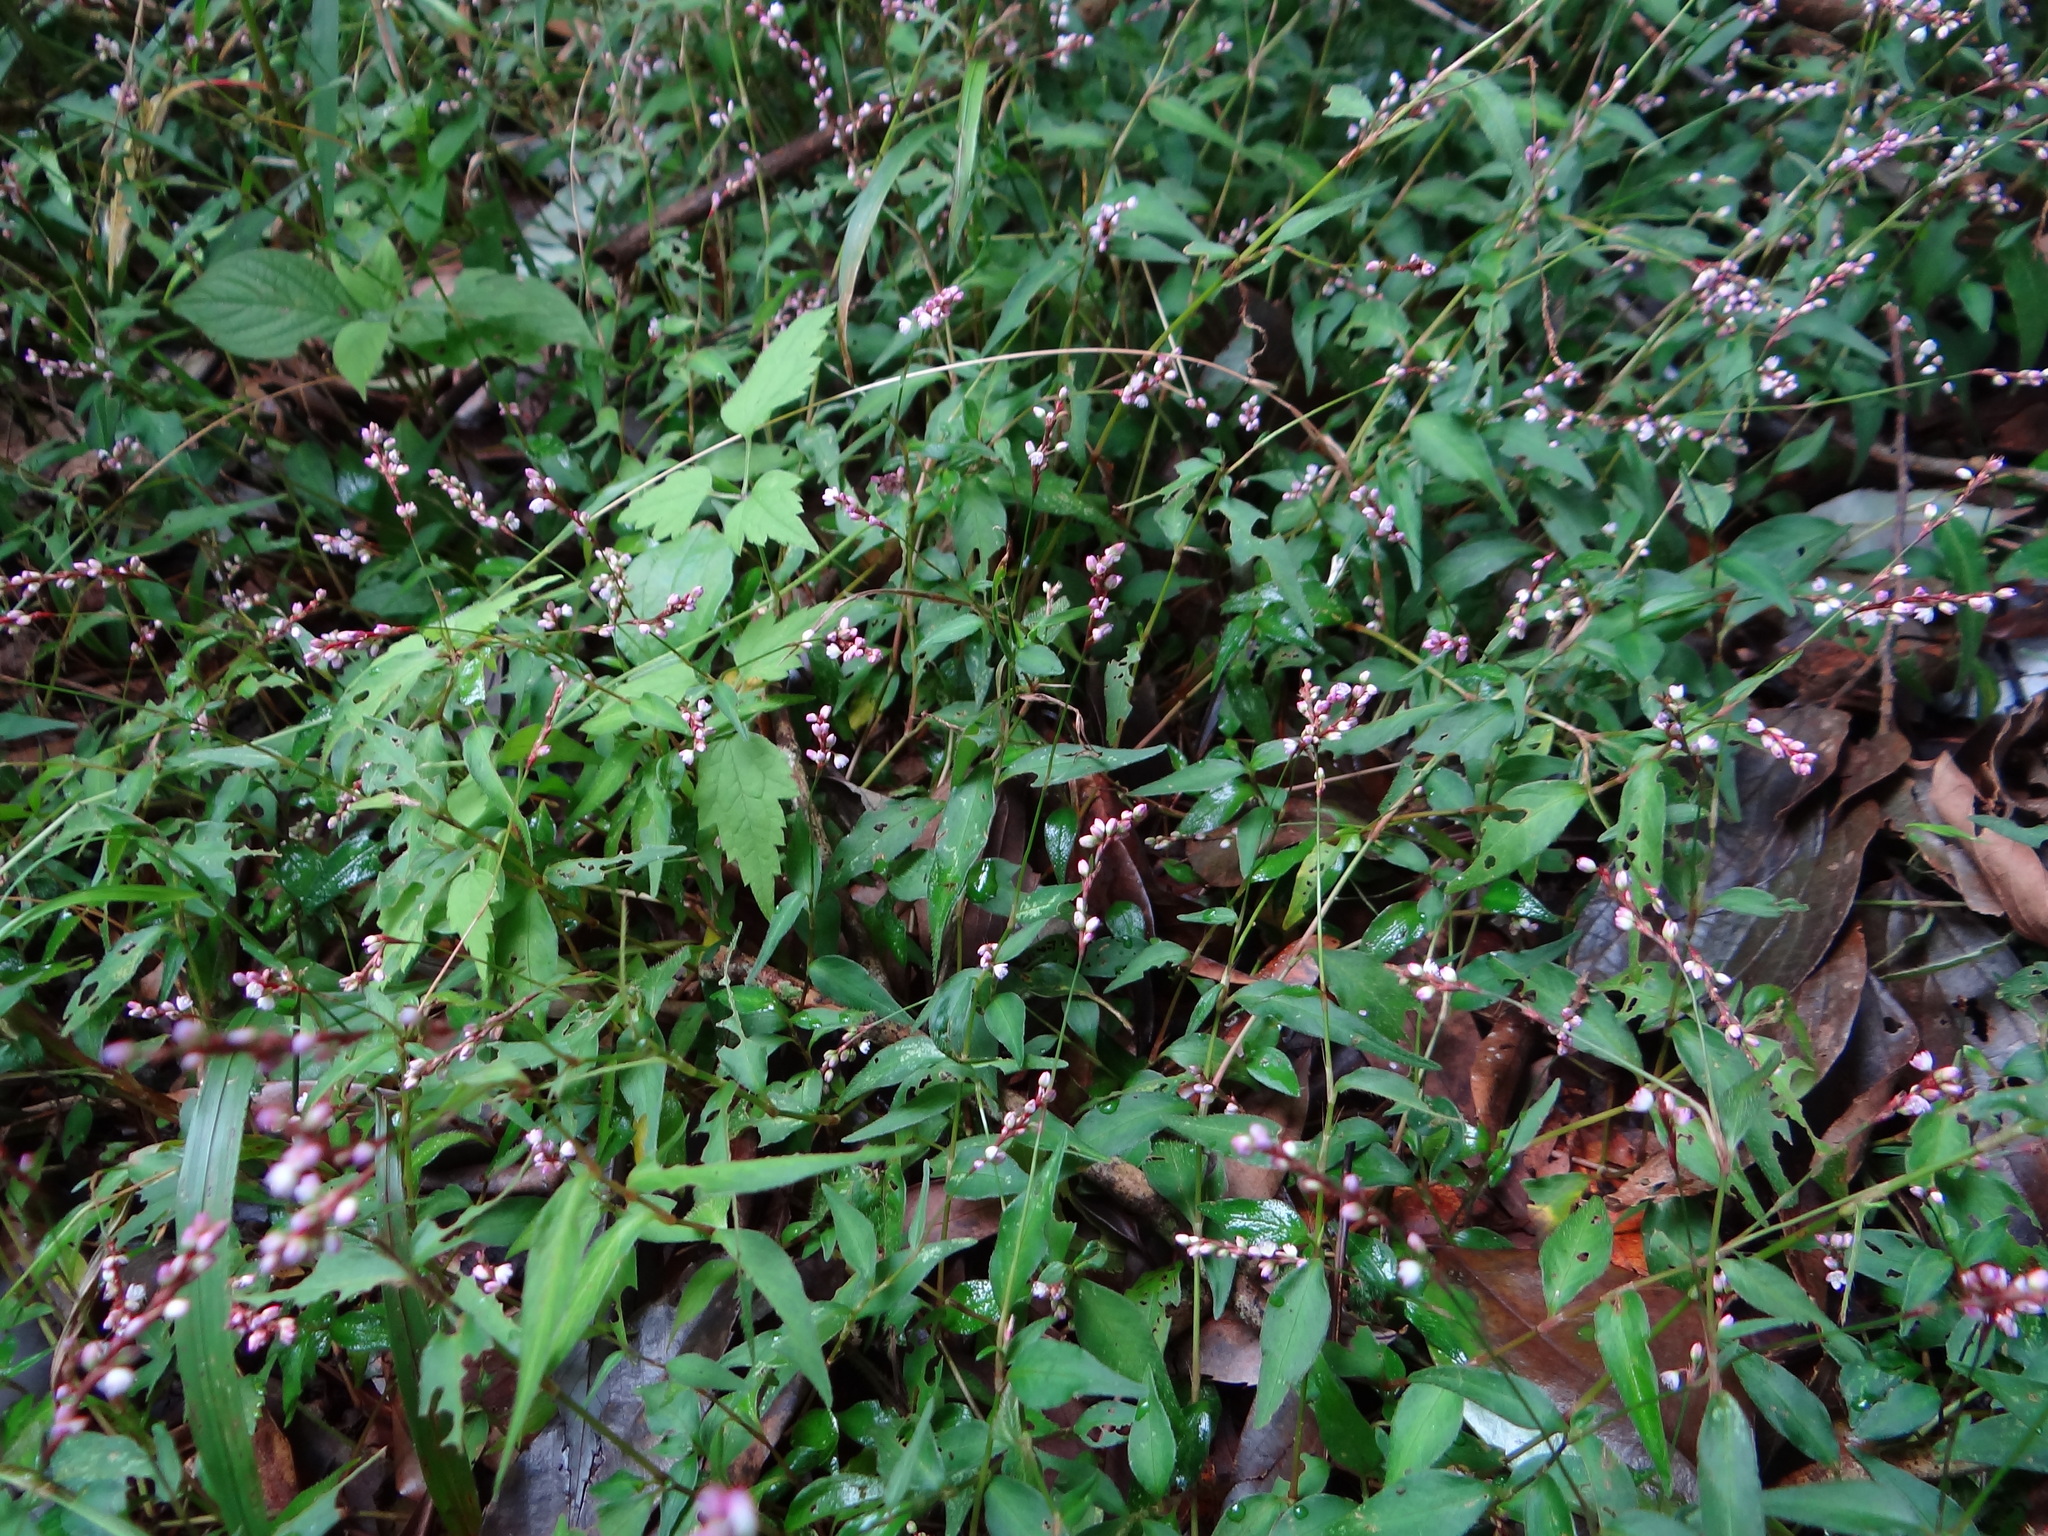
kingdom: Plantae
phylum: Tracheophyta
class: Magnoliopsida
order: Caryophyllales
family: Polygonaceae
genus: Persicaria
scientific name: Persicaria posumbu
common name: Oriental lady's thumb
